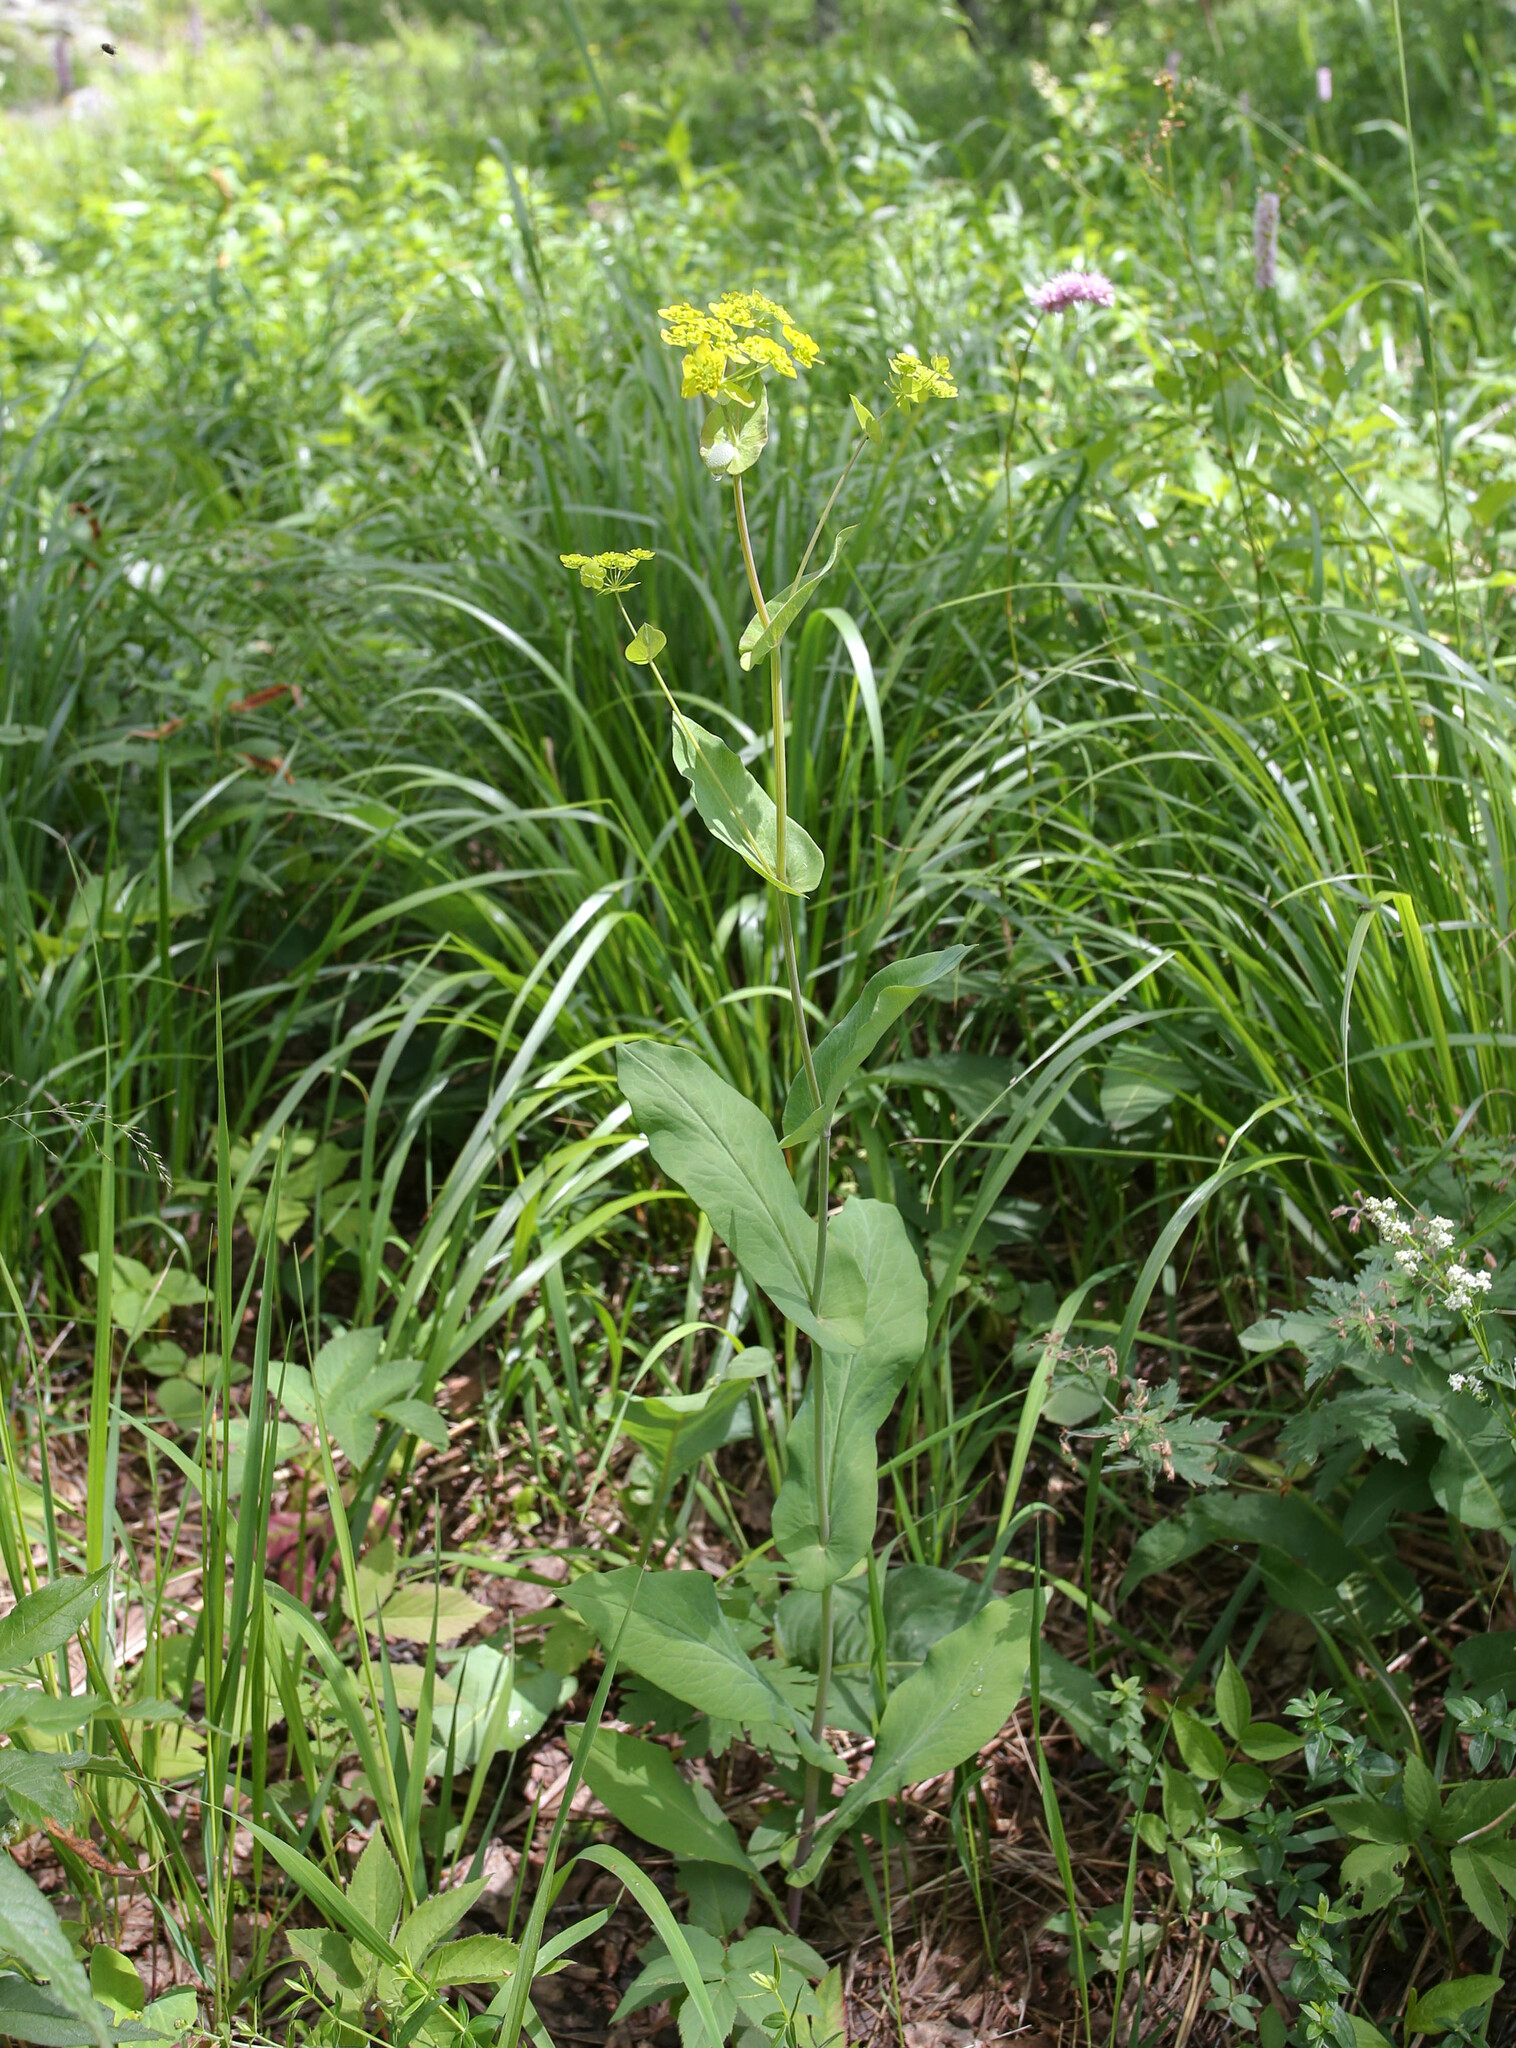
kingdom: Plantae
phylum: Tracheophyta
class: Magnoliopsida
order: Apiales
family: Apiaceae
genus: Bupleurum
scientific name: Bupleurum aureum
